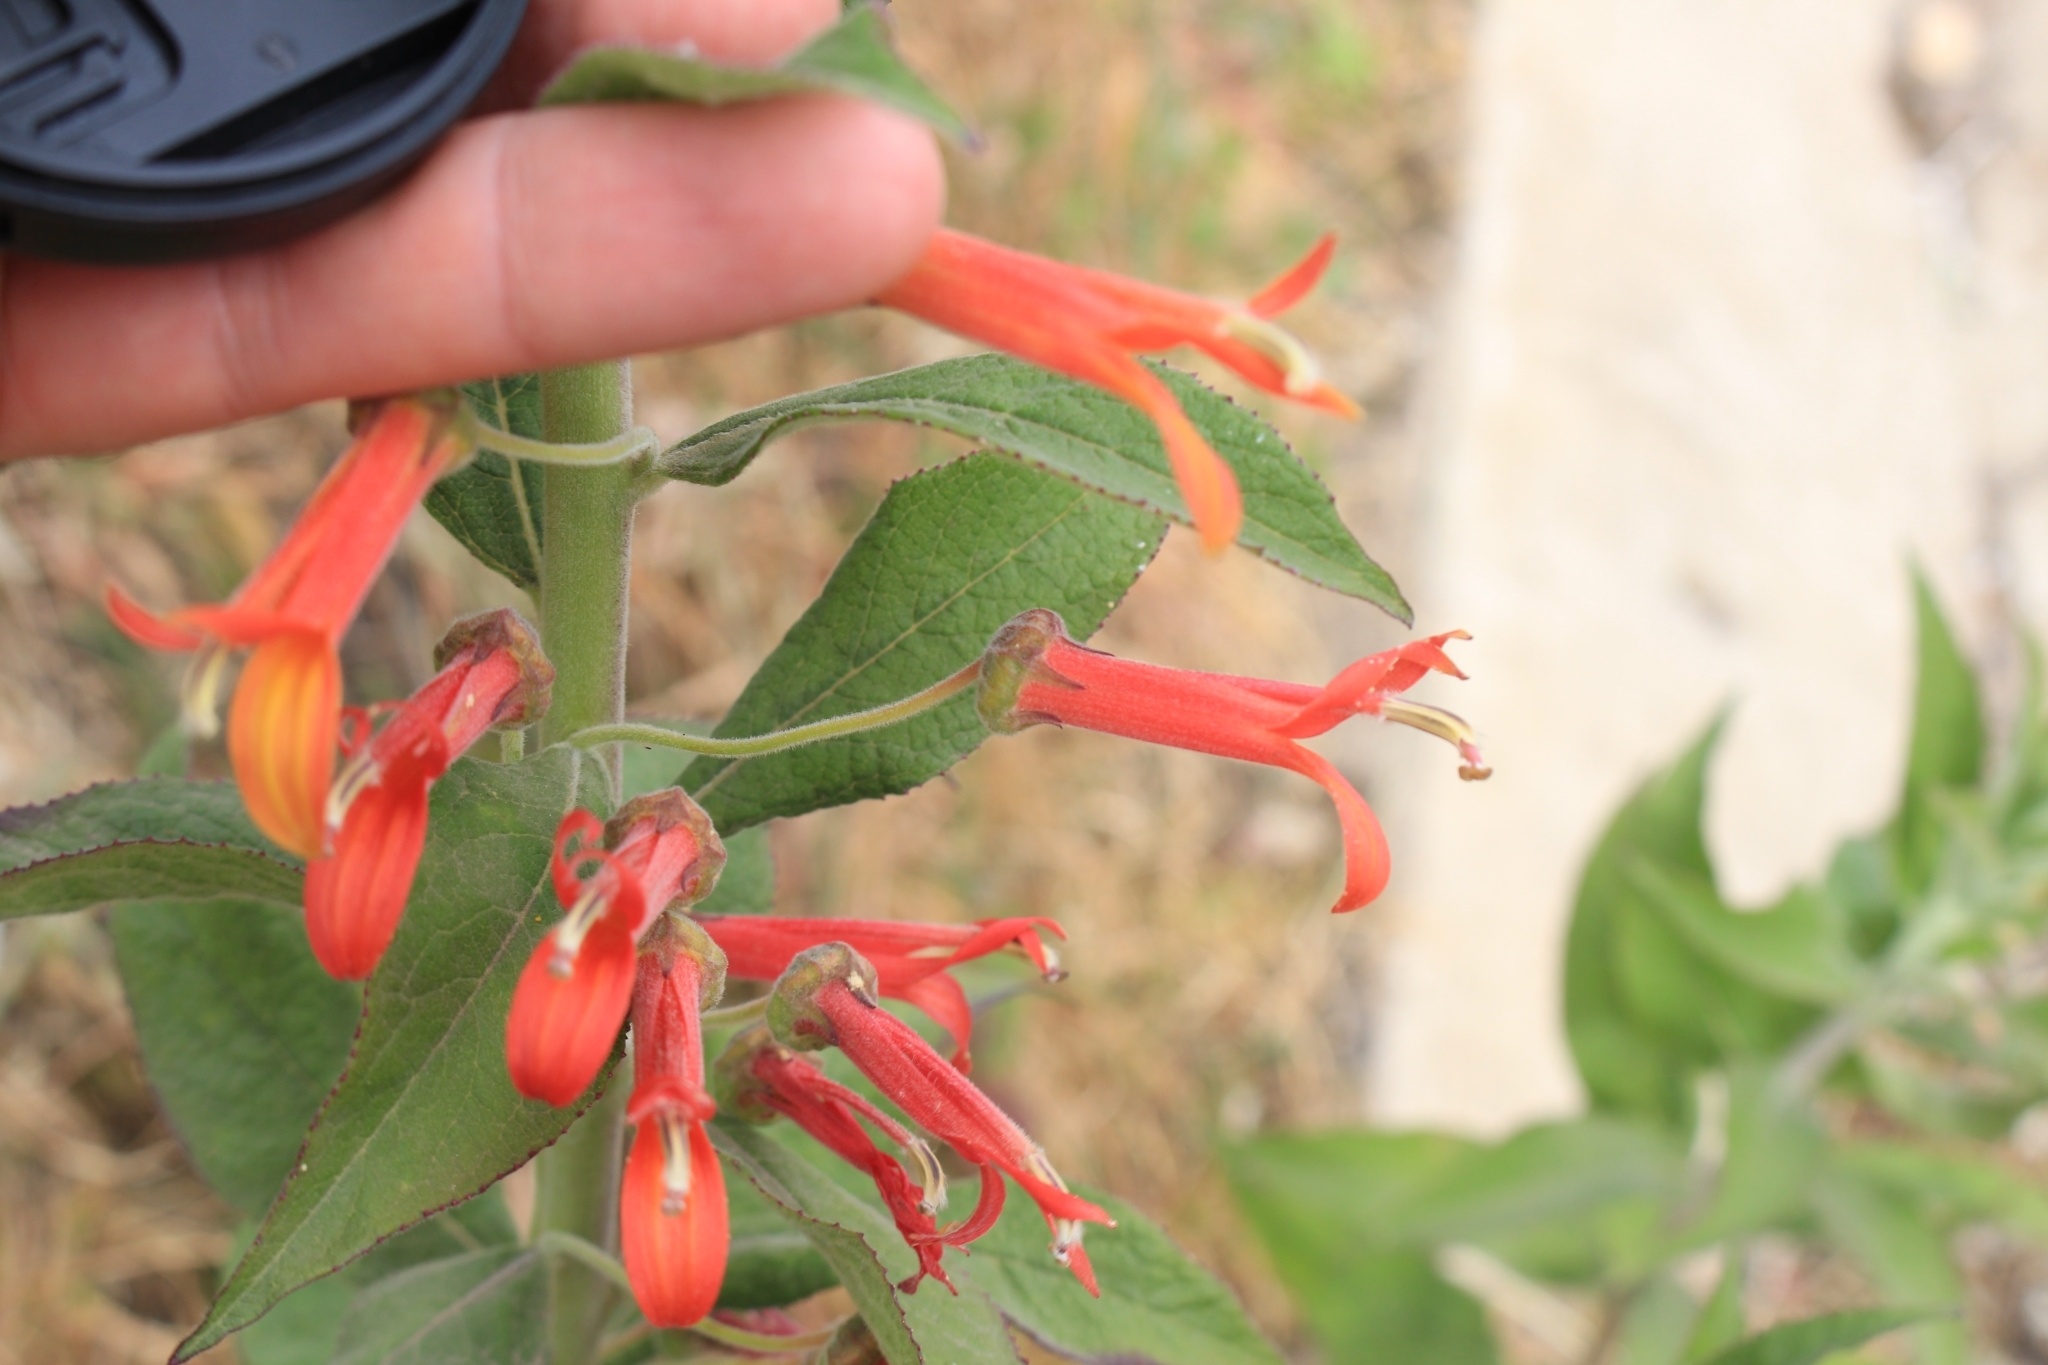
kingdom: Plantae
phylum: Tracheophyta
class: Magnoliopsida
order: Asterales
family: Campanulaceae
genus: Lobelia
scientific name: Lobelia laxiflora
